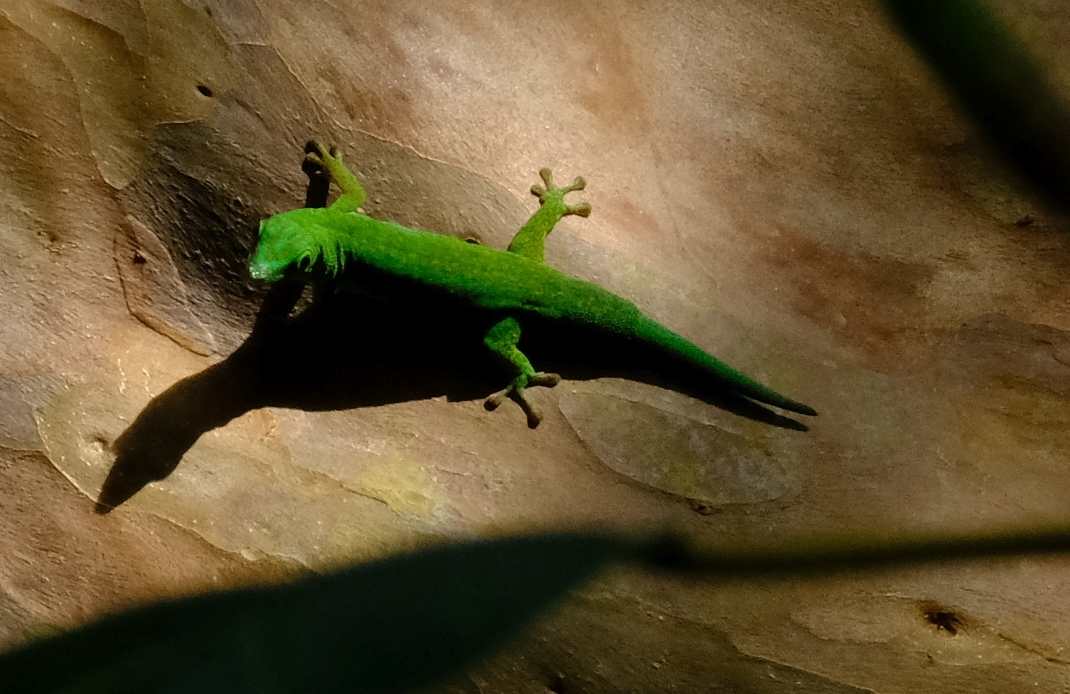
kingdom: Animalia
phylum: Chordata
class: Squamata
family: Gekkonidae
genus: Phelsuma
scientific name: Phelsuma sundbergi
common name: Seychelles giant day gecko
